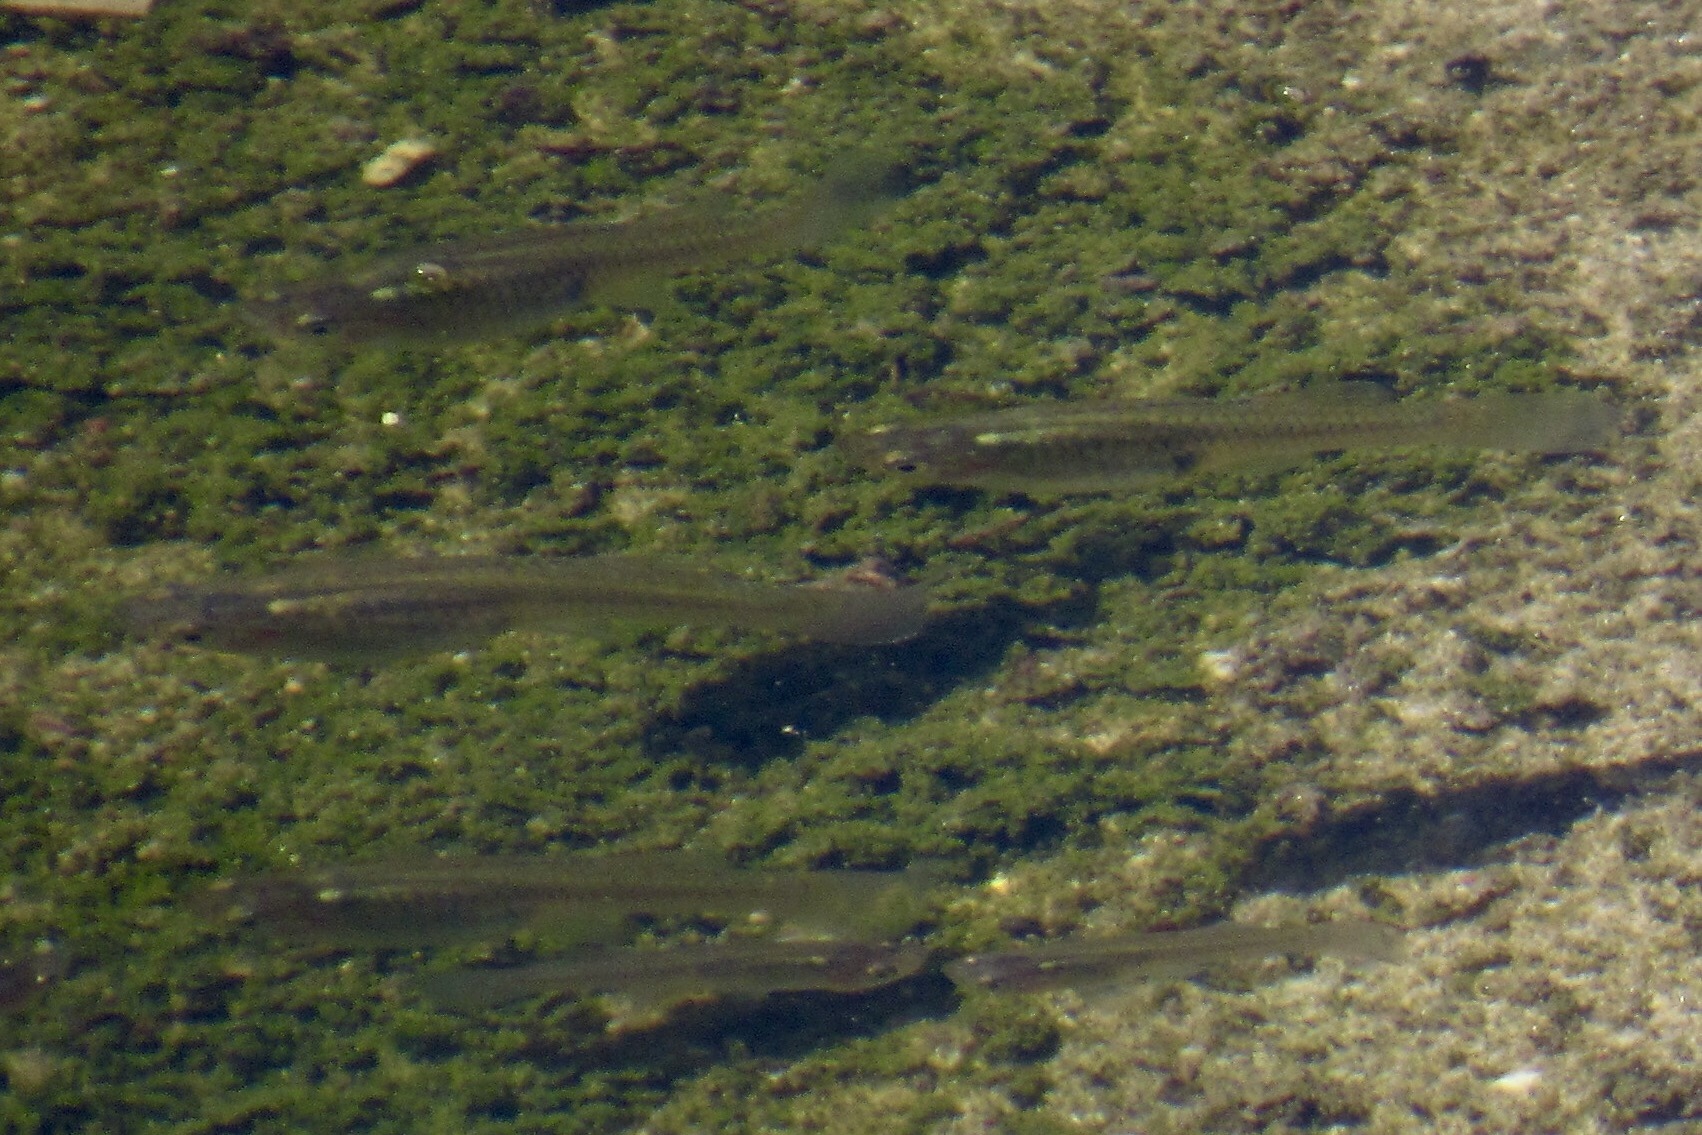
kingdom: Animalia
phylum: Chordata
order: Cyprinodontiformes
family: Poeciliidae
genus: Gambusia
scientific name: Gambusia affinis
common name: Mosquitofish
